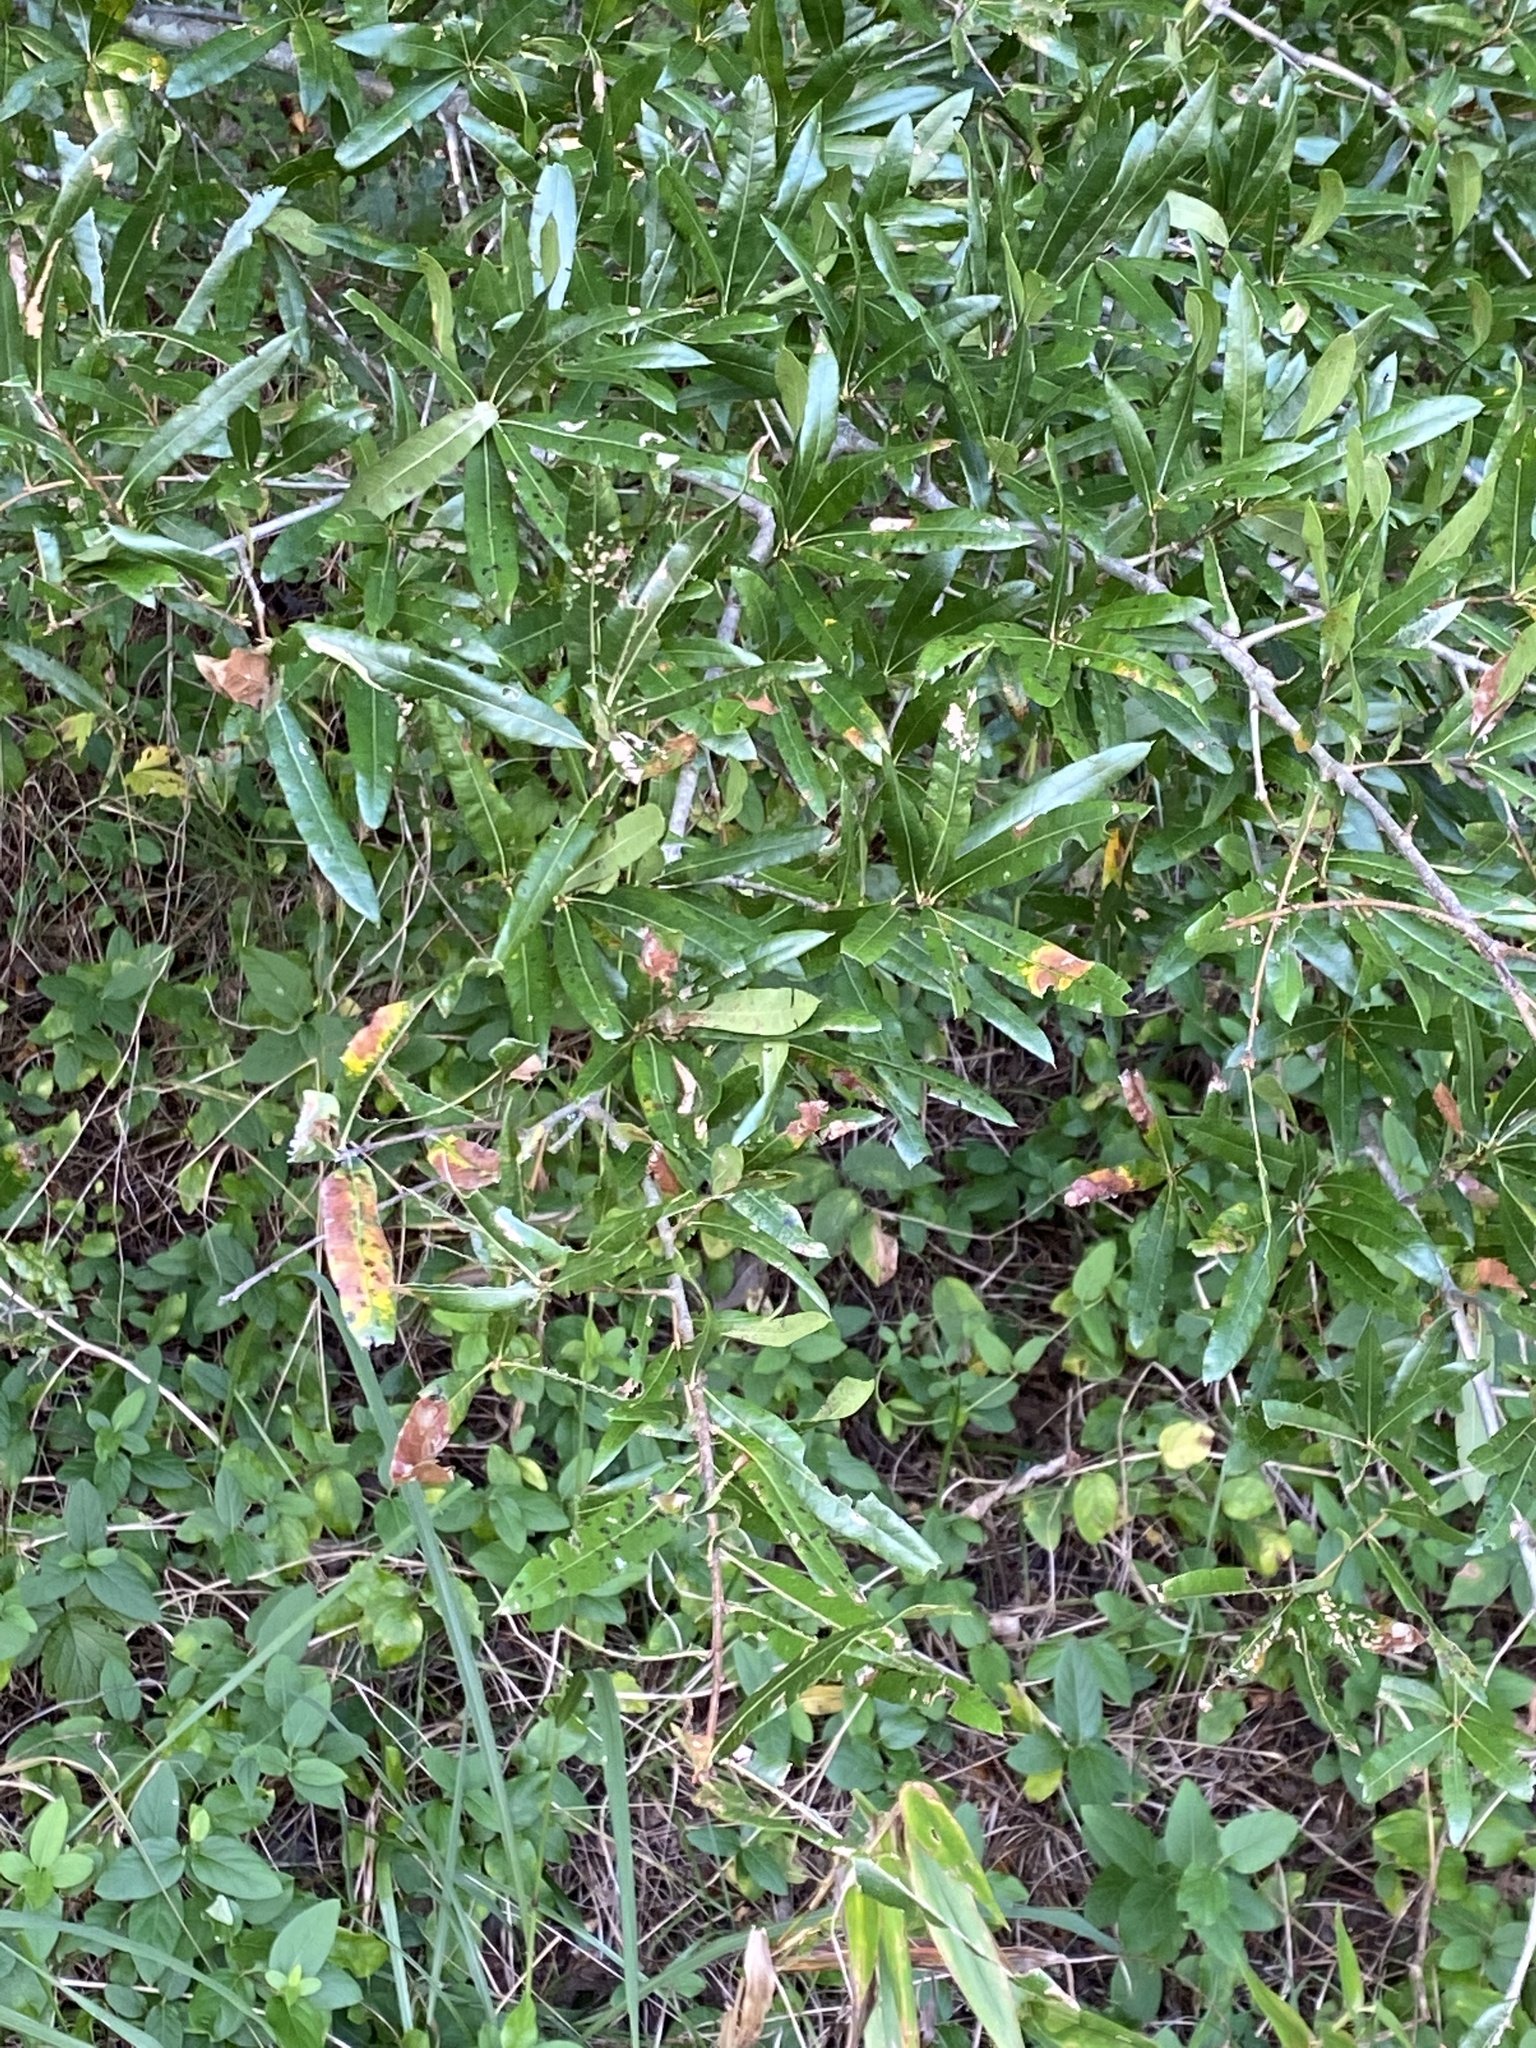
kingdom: Plantae
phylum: Tracheophyta
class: Magnoliopsida
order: Fagales
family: Fagaceae
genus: Quercus
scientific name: Quercus phellos
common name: Willow oak
